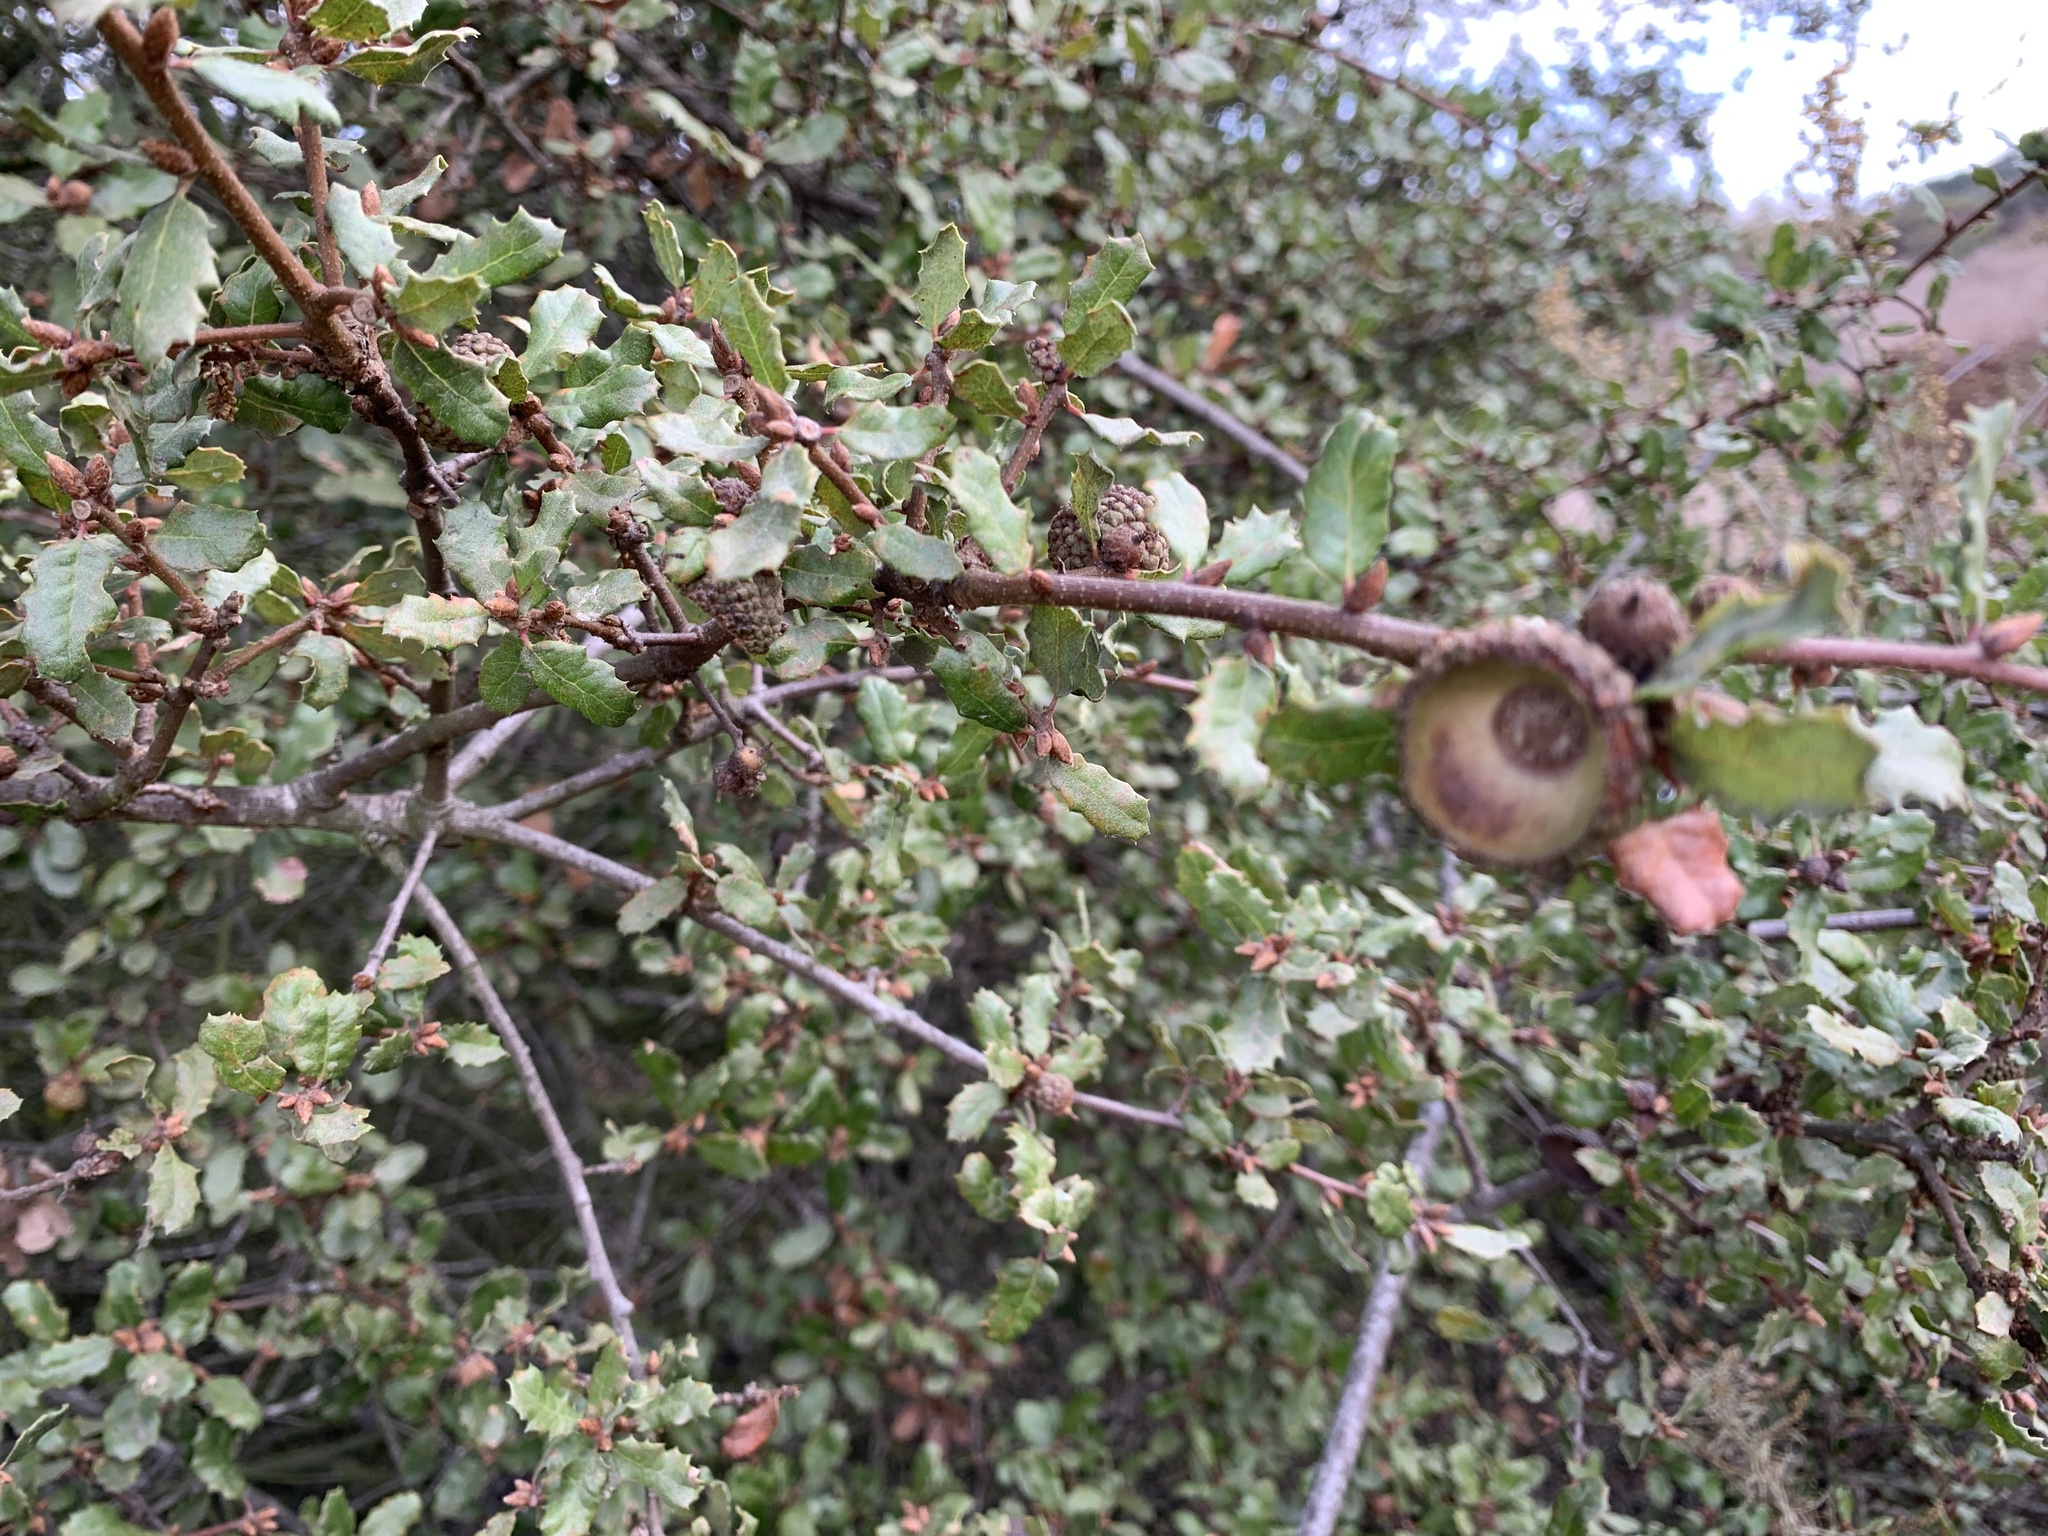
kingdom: Plantae
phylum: Tracheophyta
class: Magnoliopsida
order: Fagales
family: Fagaceae
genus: Quercus
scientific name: Quercus dumosa
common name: Coastal sage scrub oak
